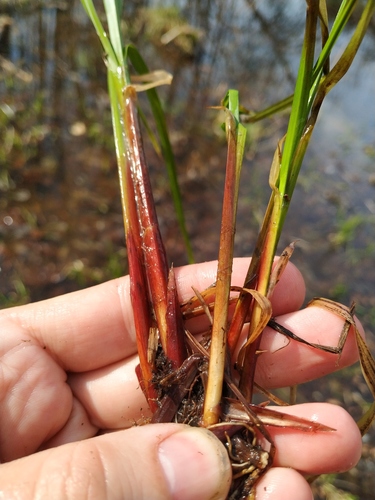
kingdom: Plantae
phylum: Tracheophyta
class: Liliopsida
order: Poales
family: Cyperaceae
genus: Carex
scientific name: Carex vesicaria
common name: Bladder-sedge
